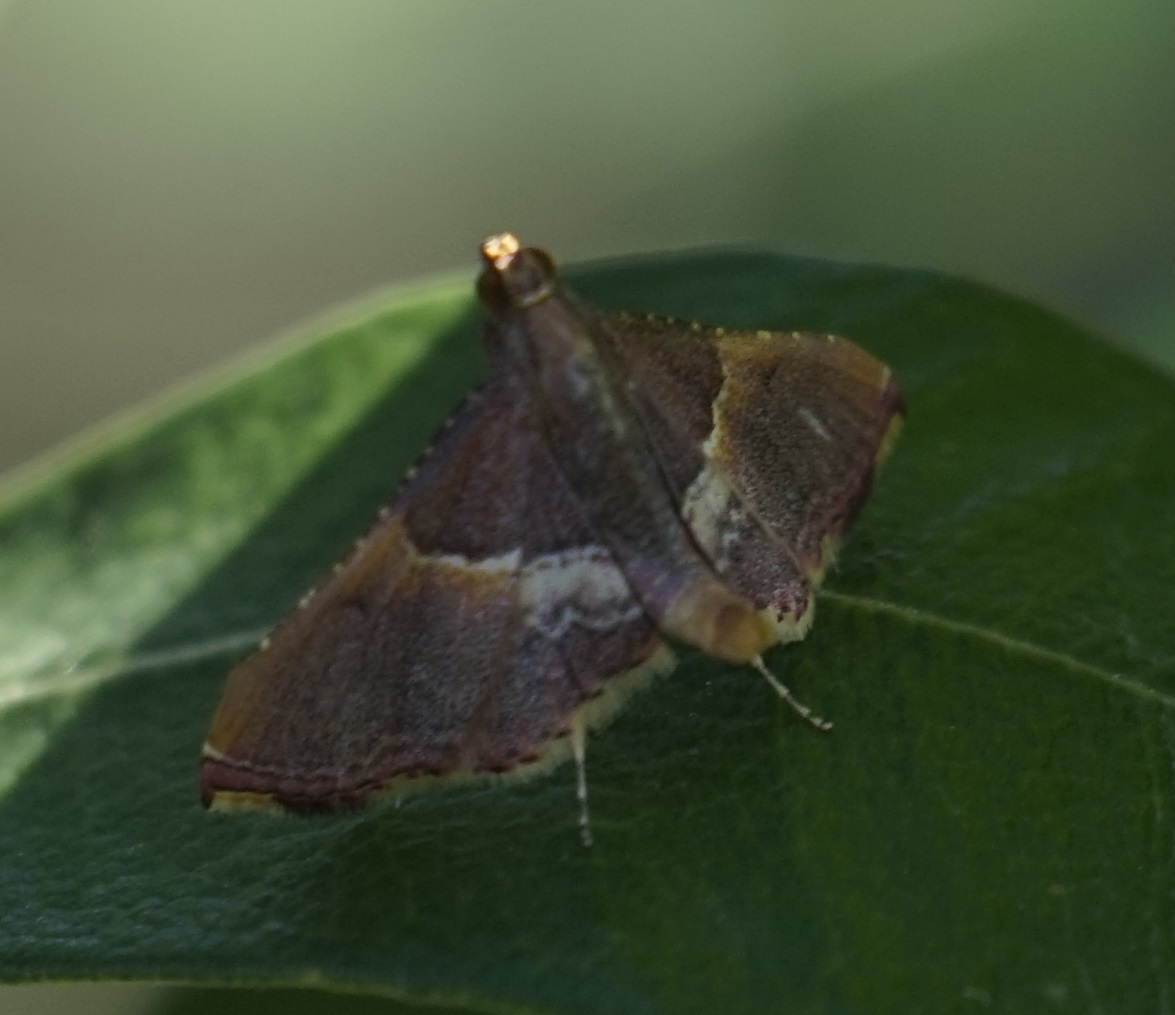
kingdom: Animalia
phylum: Arthropoda
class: Insecta
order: Lepidoptera
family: Pyralidae
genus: Endotricha
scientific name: Endotricha mesenterialis
